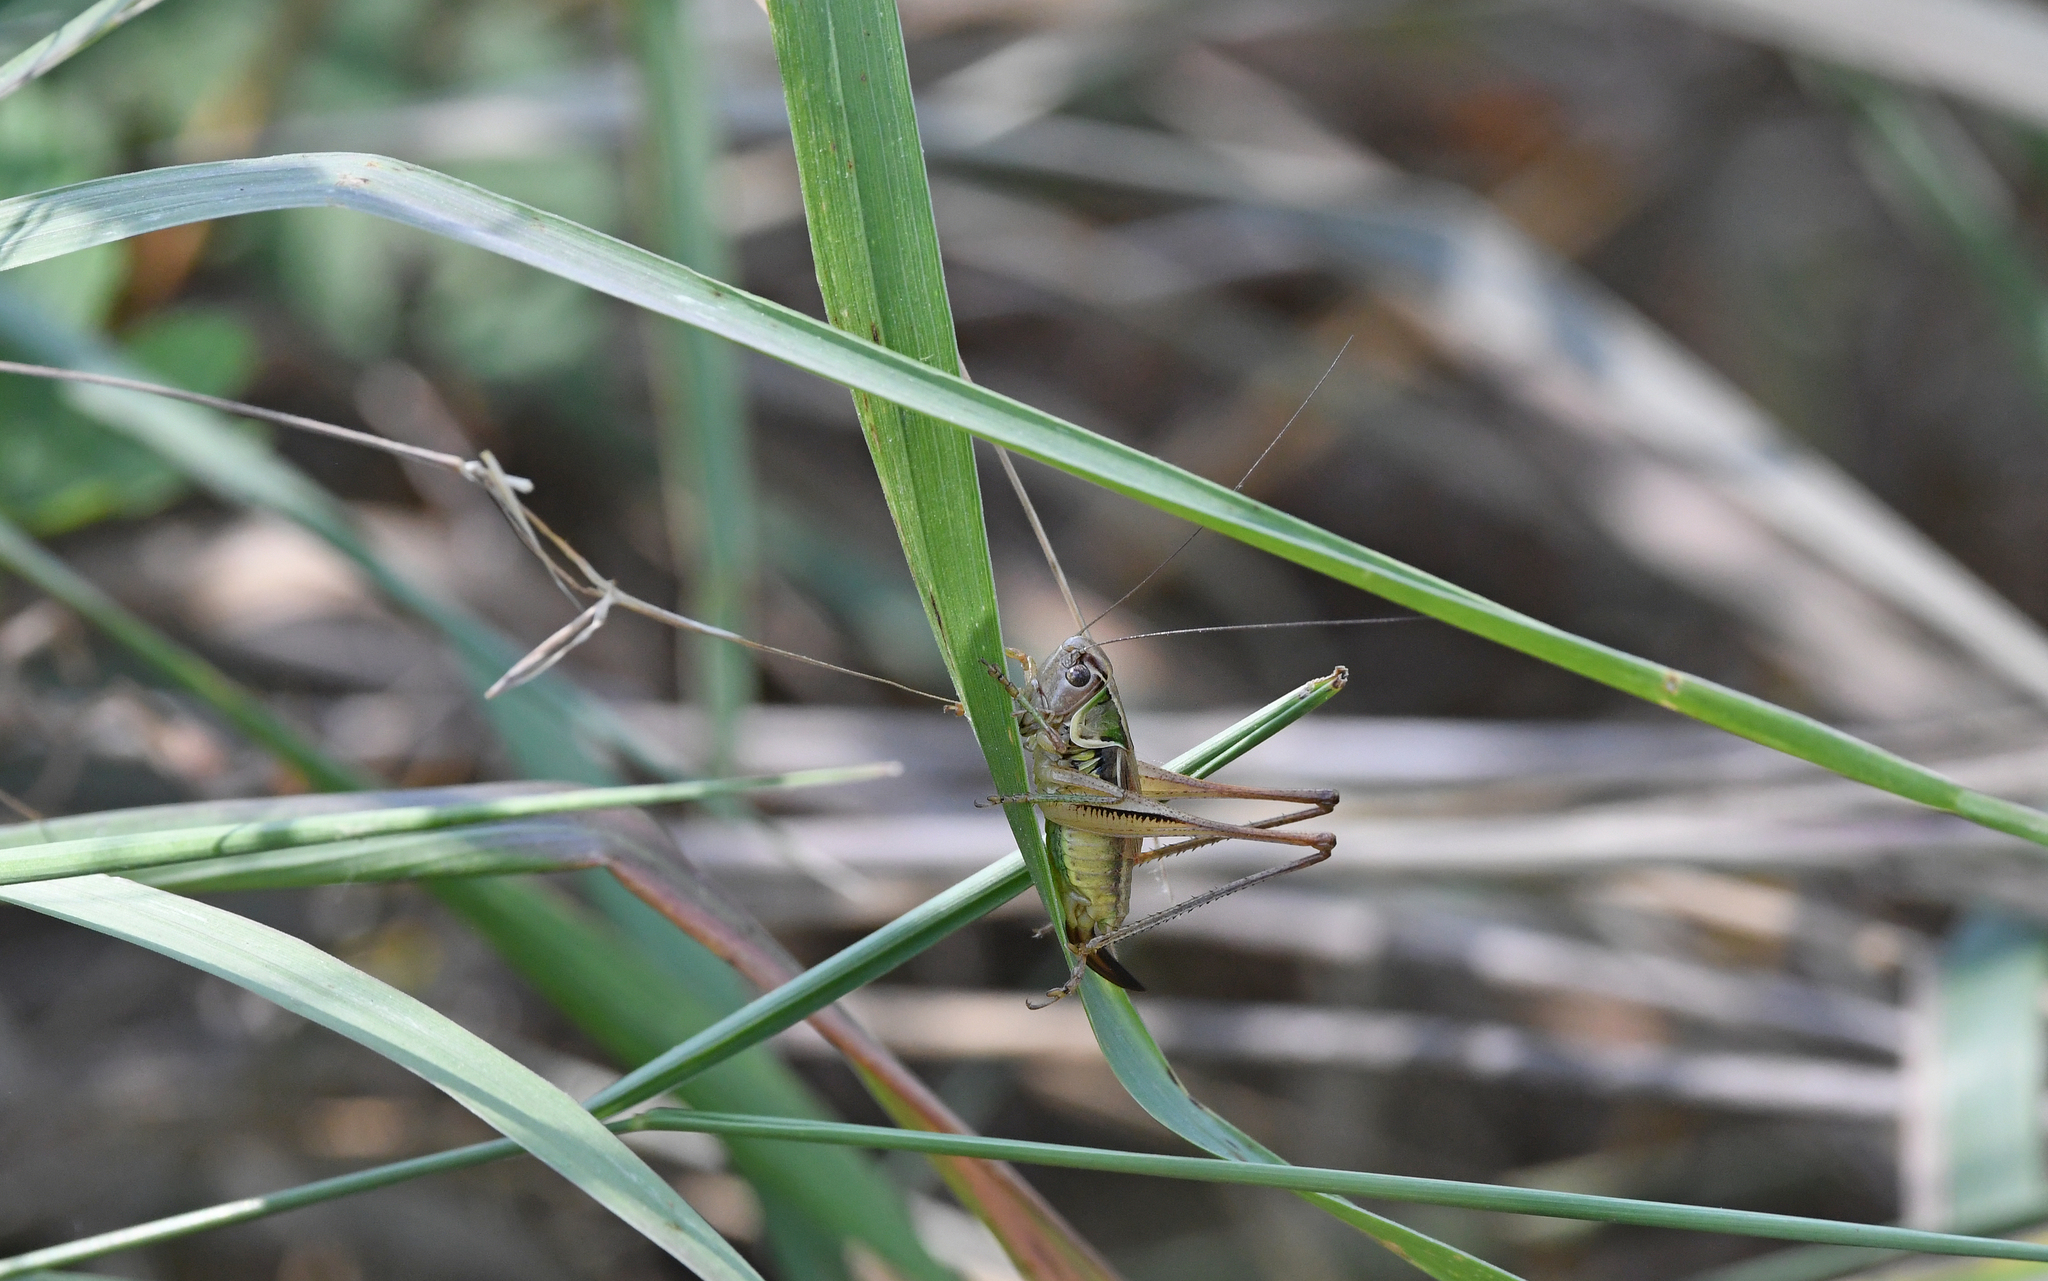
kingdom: Animalia
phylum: Arthropoda
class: Insecta
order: Orthoptera
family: Tettigoniidae
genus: Roeseliana
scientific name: Roeseliana azami
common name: French meadow bush-cricket
